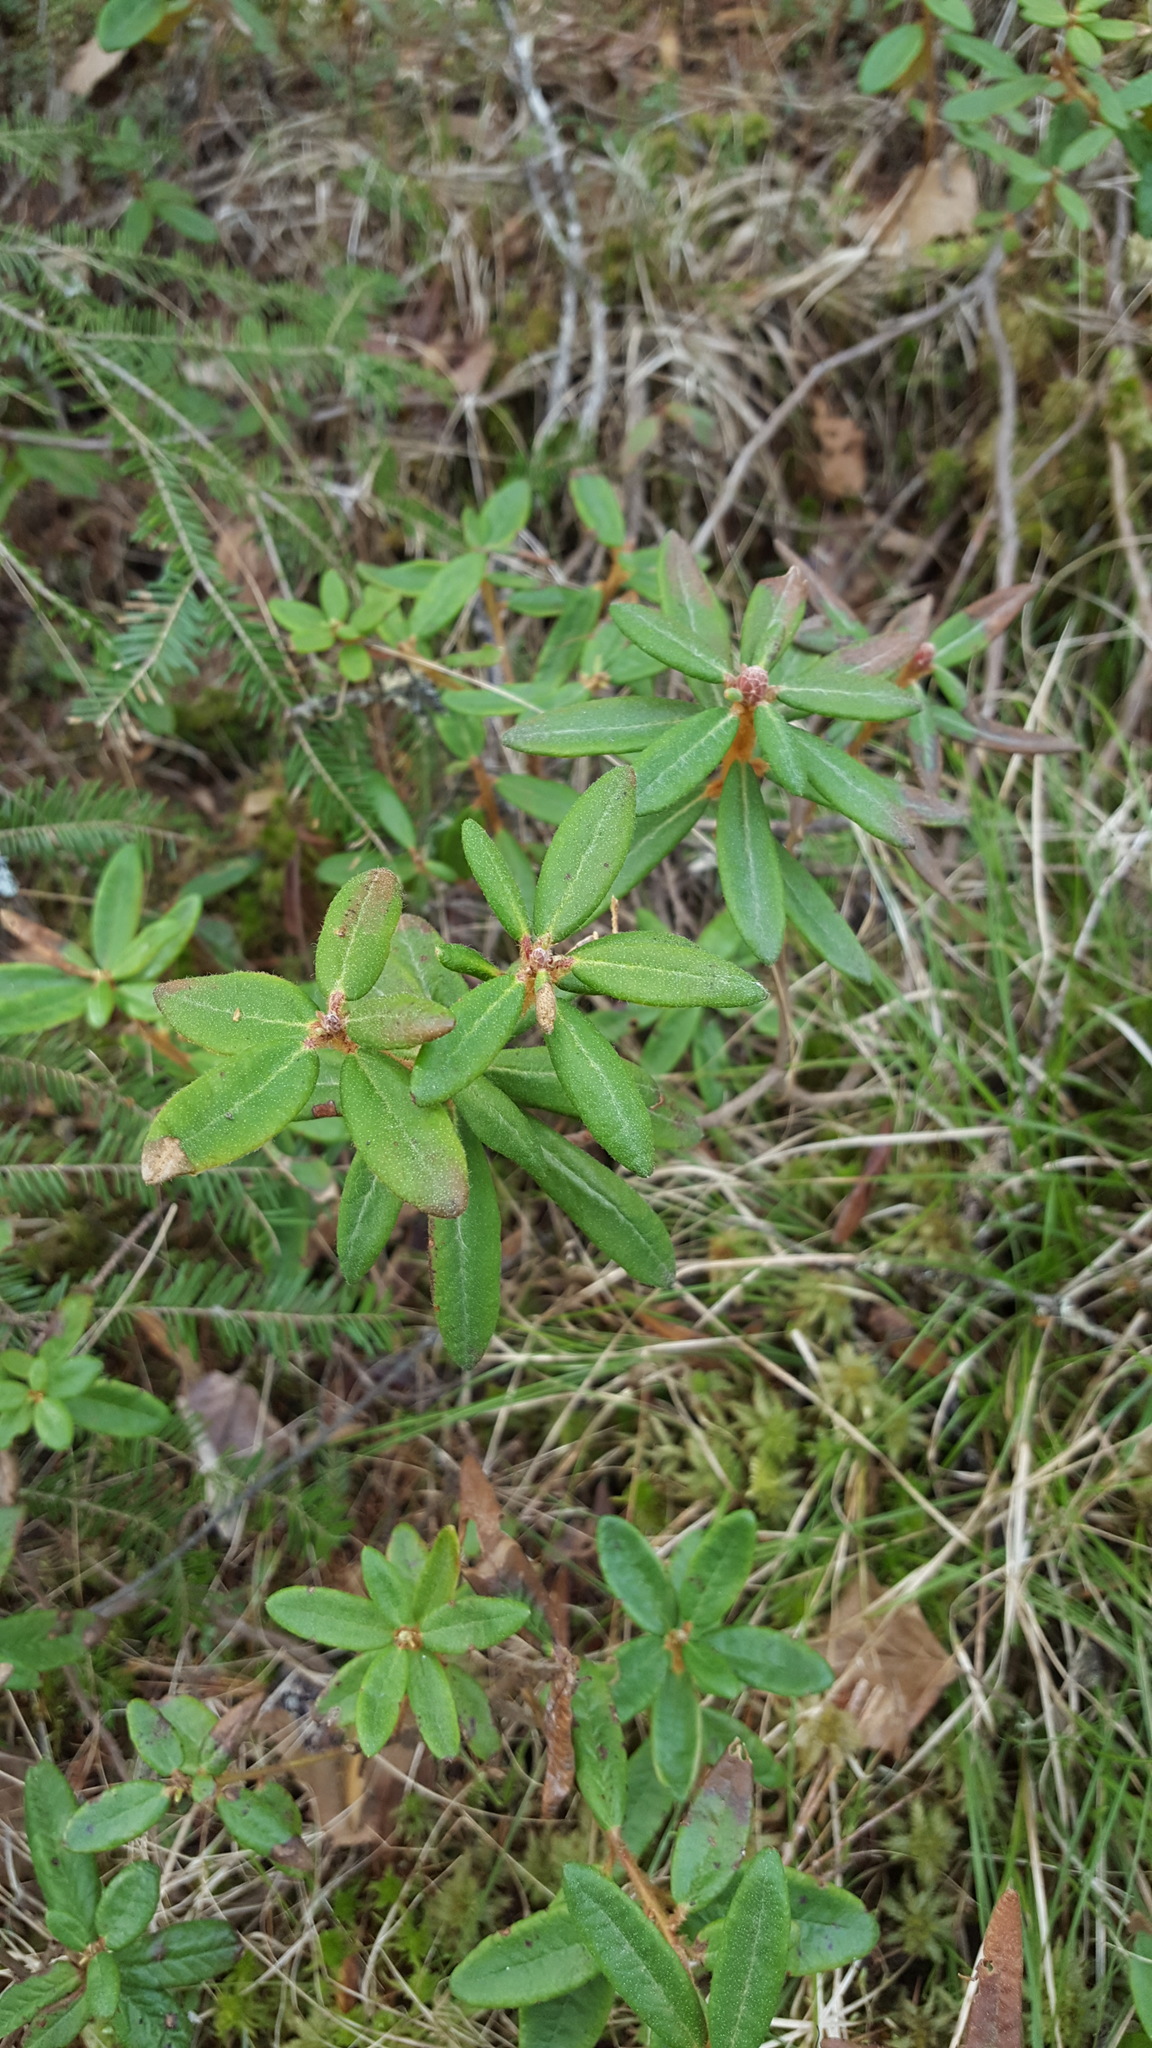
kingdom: Plantae
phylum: Tracheophyta
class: Magnoliopsida
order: Ericales
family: Ericaceae
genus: Rhododendron
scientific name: Rhododendron groenlandicum
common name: Bog labrador tea
